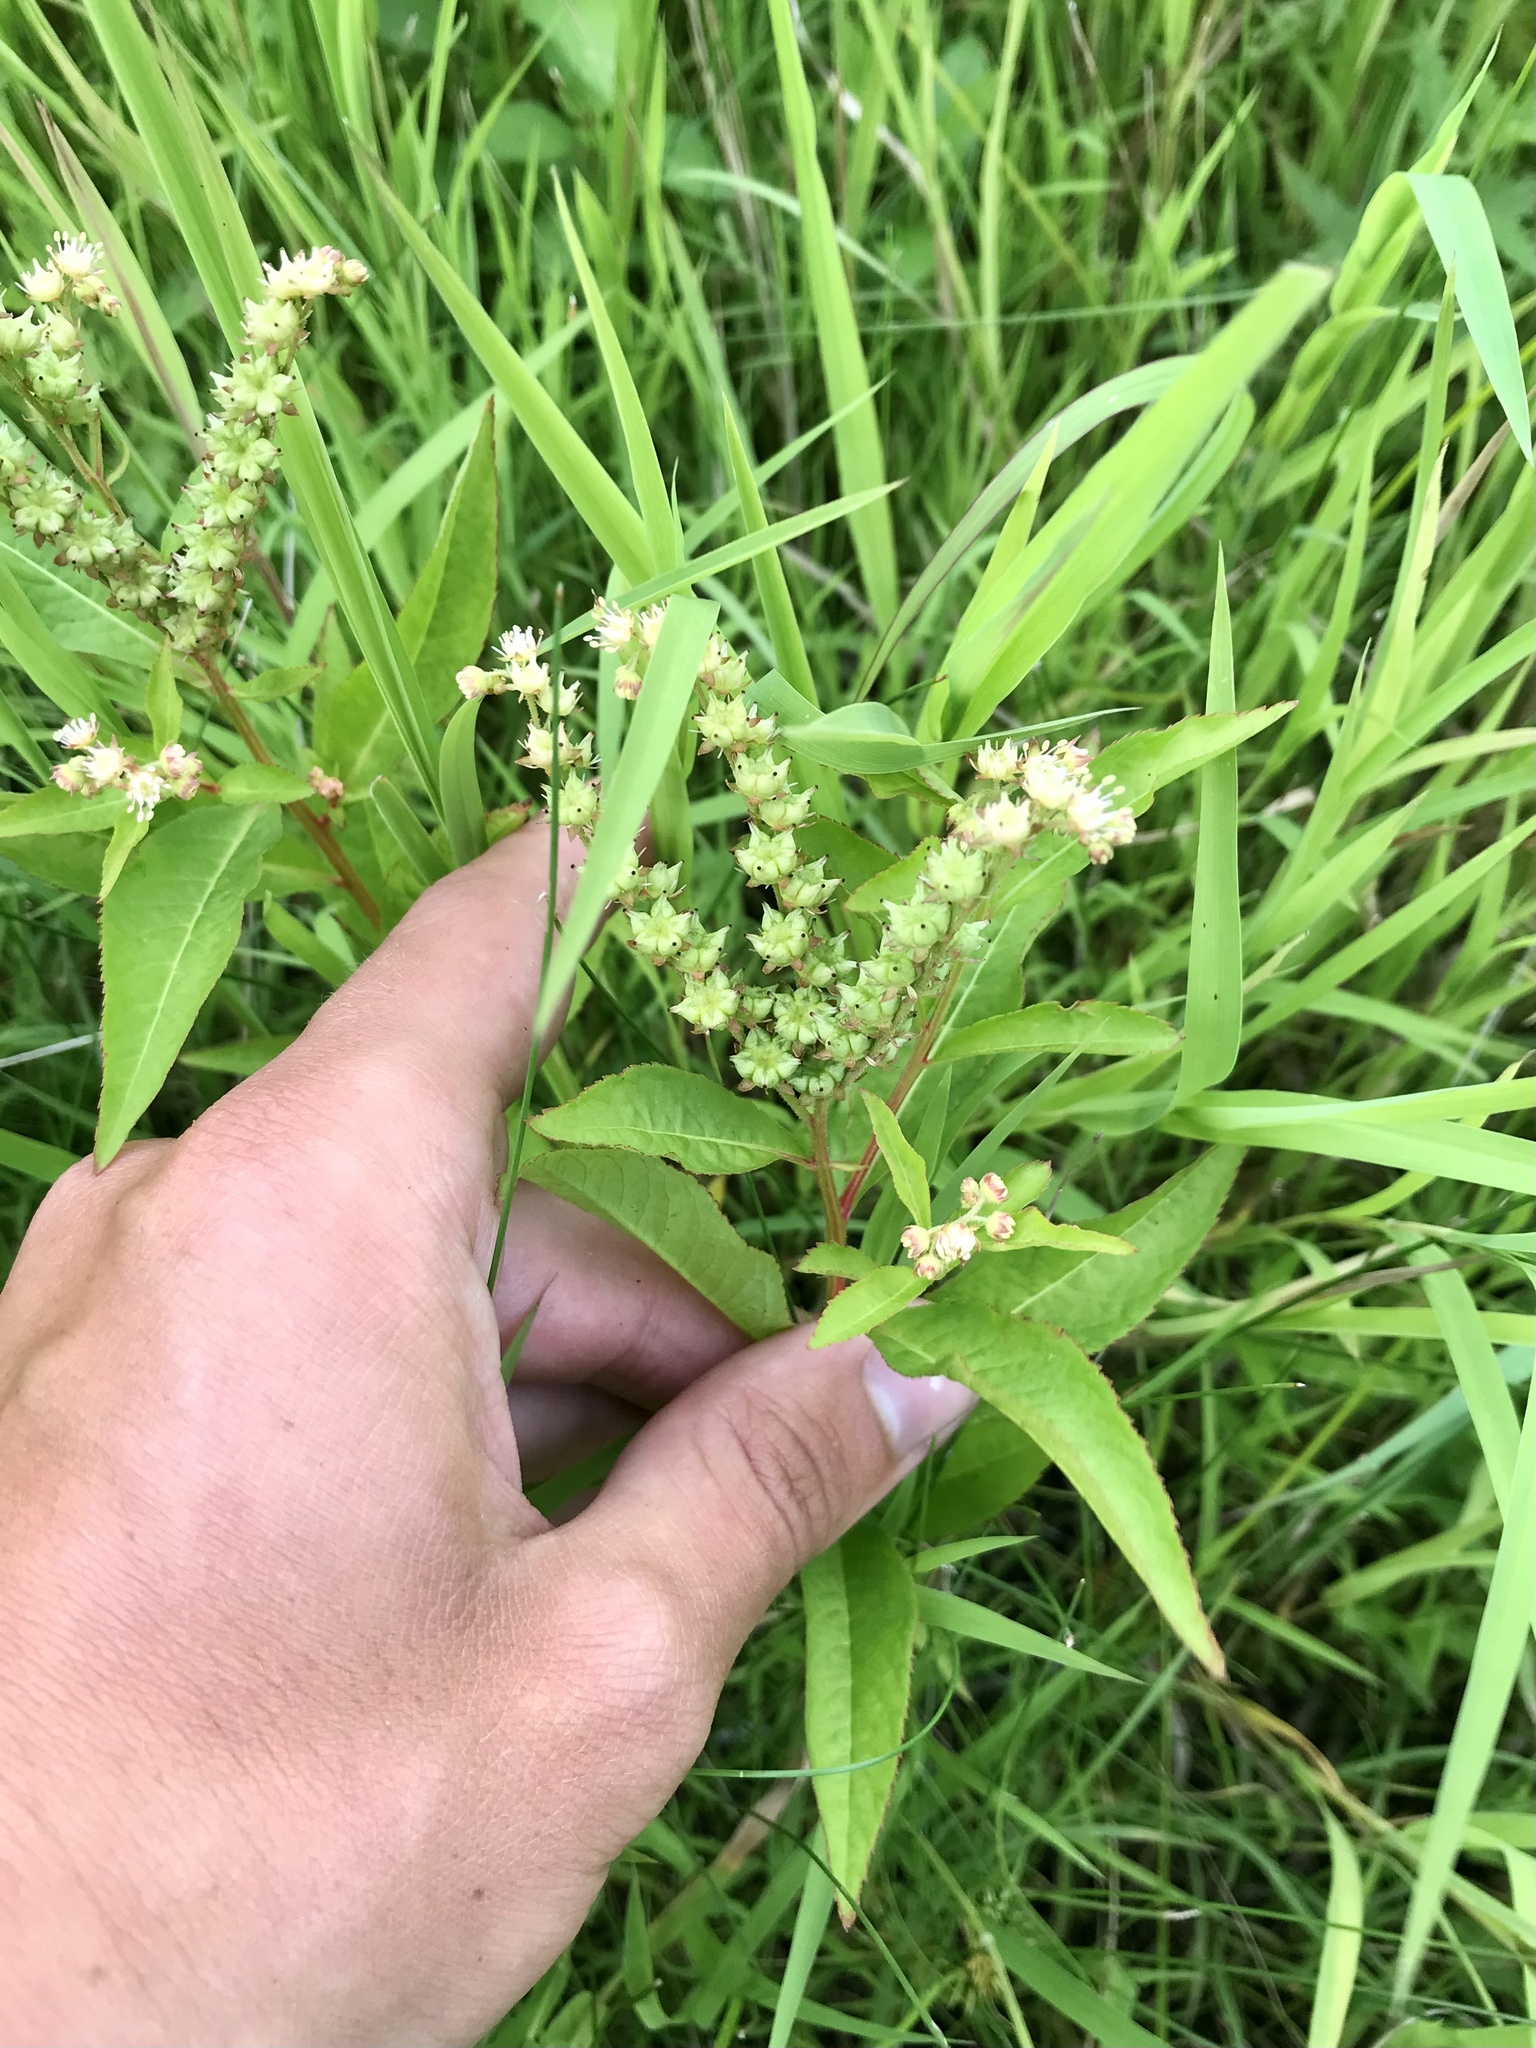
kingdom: Plantae
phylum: Tracheophyta
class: Magnoliopsida
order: Saxifragales
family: Penthoraceae
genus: Penthorum
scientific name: Penthorum sedoides
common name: Ditch stonecrop
